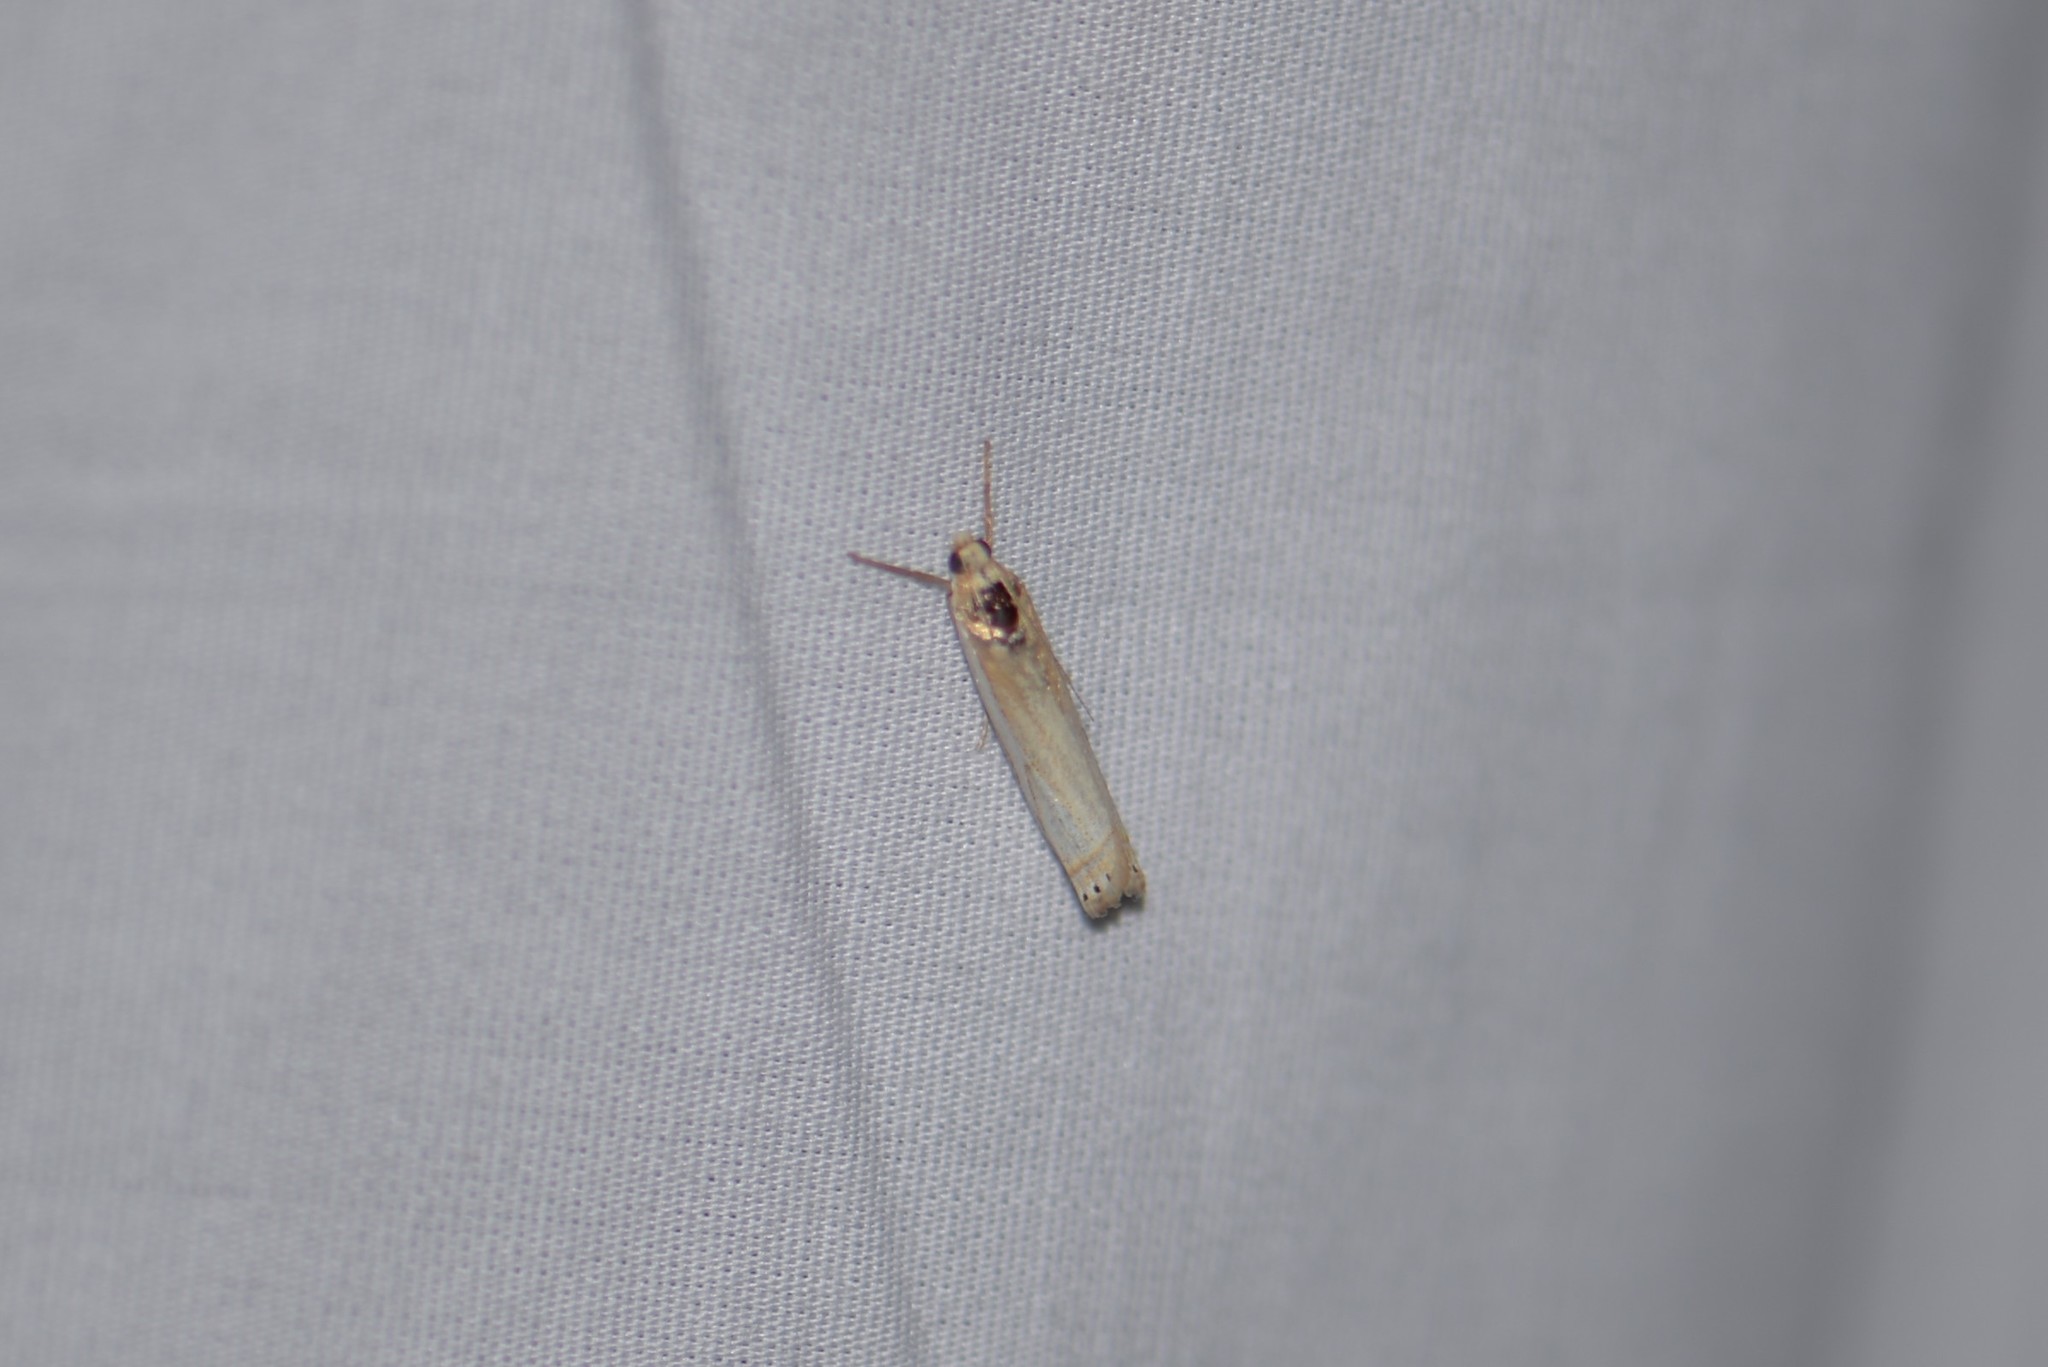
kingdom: Animalia
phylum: Arthropoda
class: Insecta
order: Lepidoptera
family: Crambidae
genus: Crambus
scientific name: Crambus
